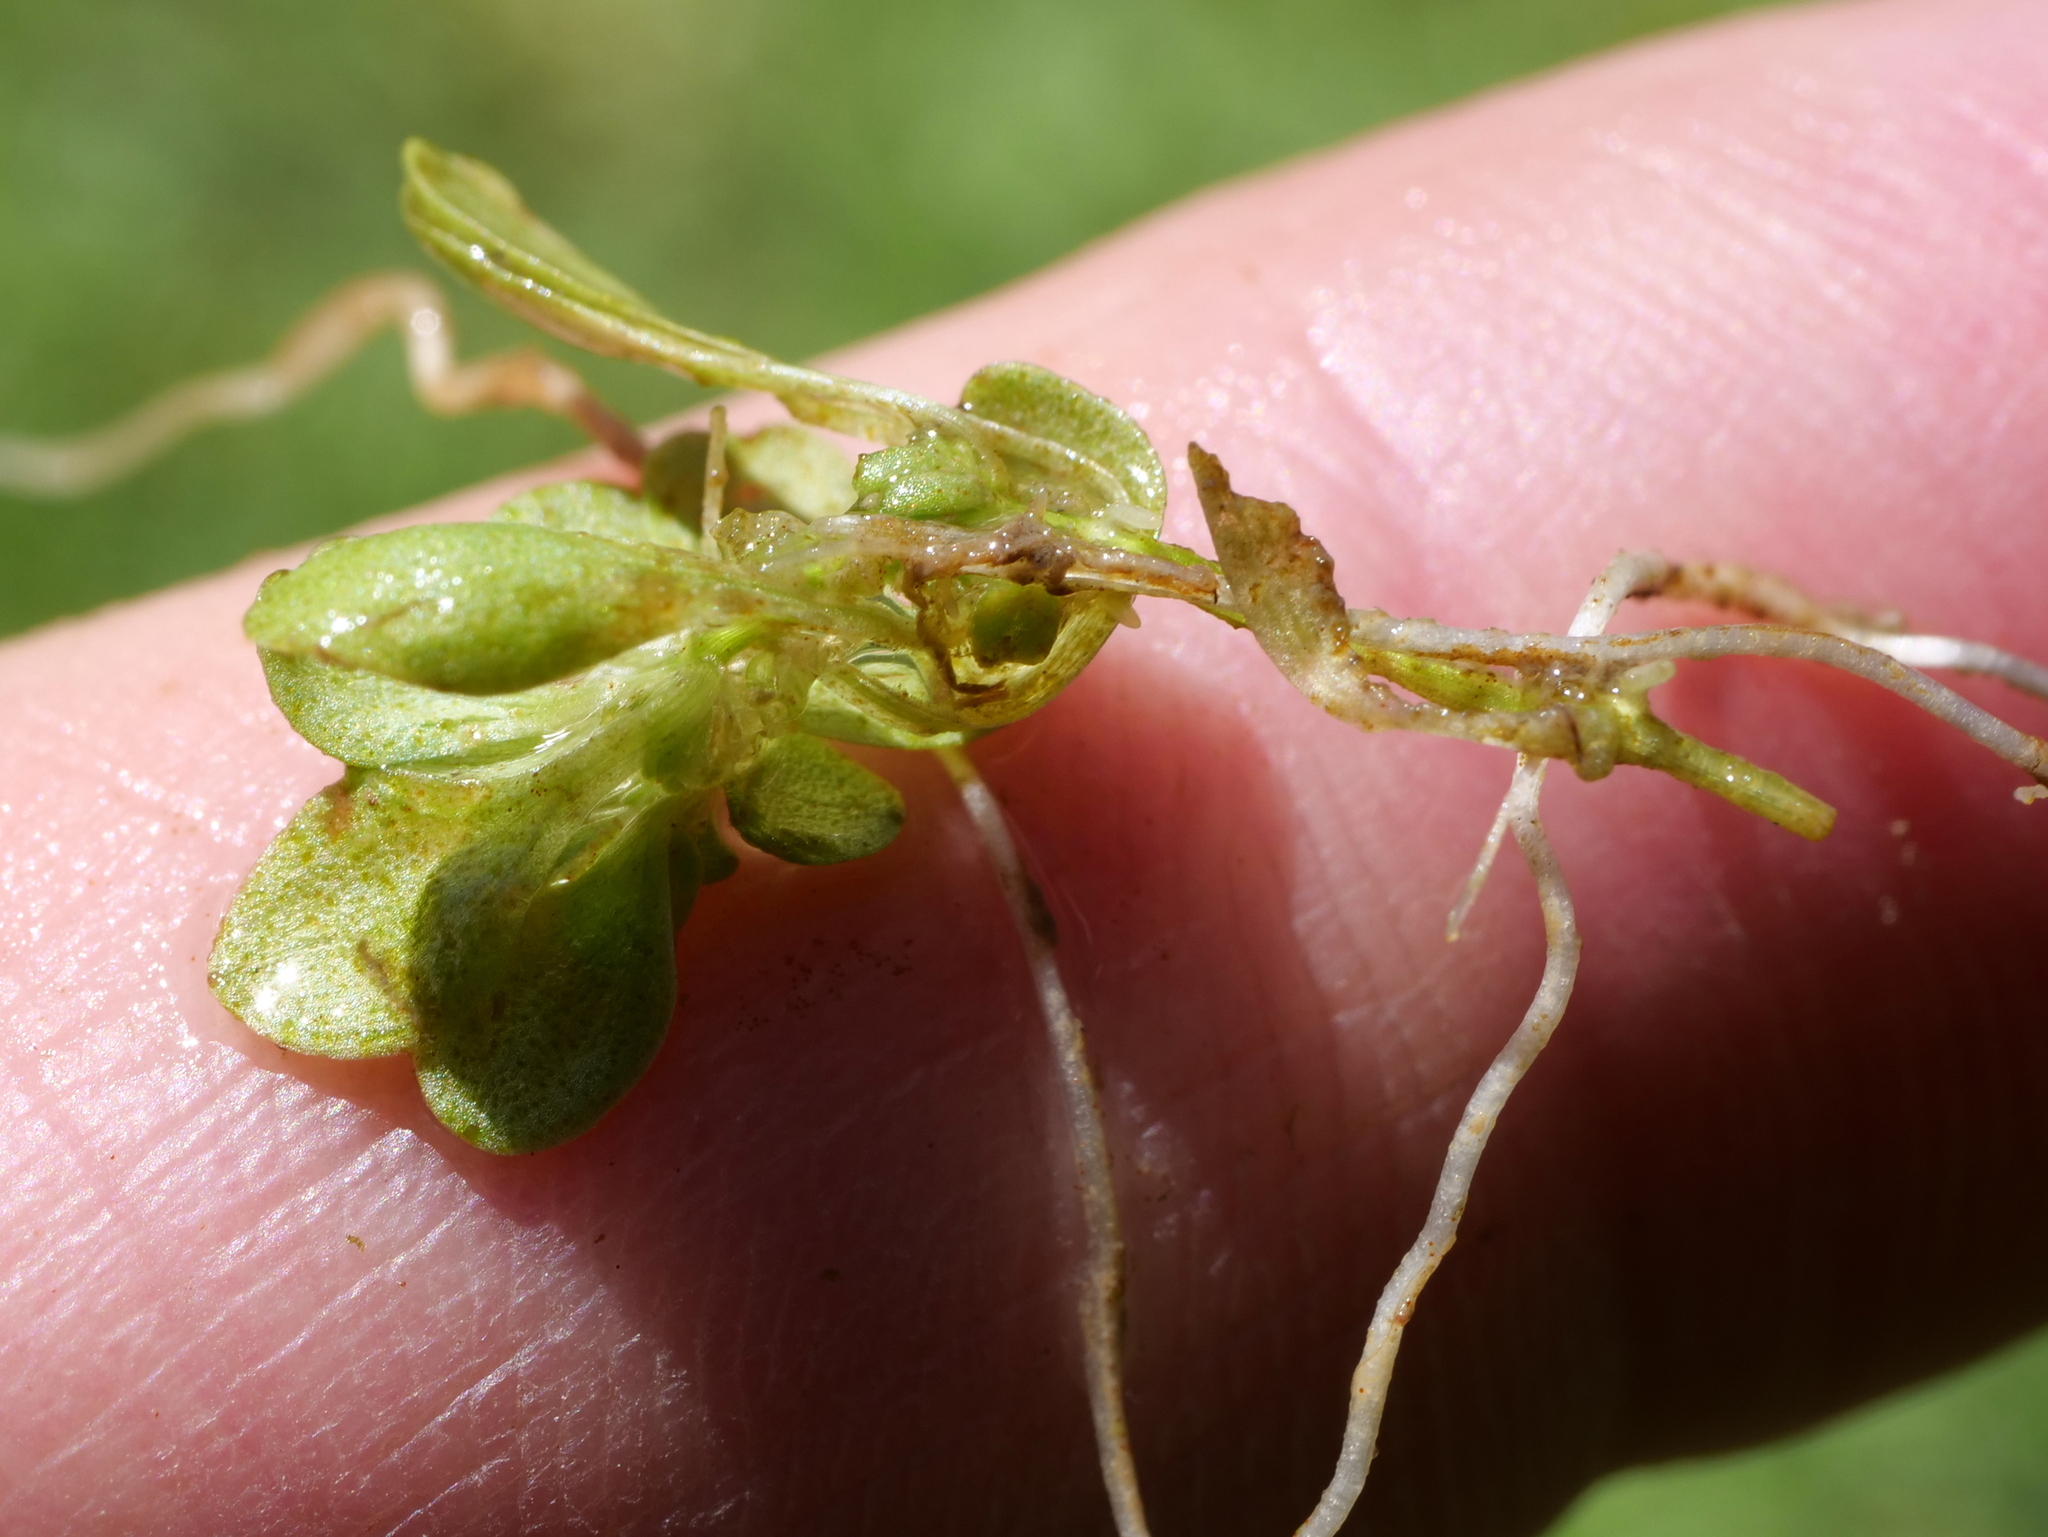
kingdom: Plantae
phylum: Tracheophyta
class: Magnoliopsida
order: Lamiales
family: Plantaginaceae
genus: Callitriche
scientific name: Callitriche palustris
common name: Spring water-starwort
